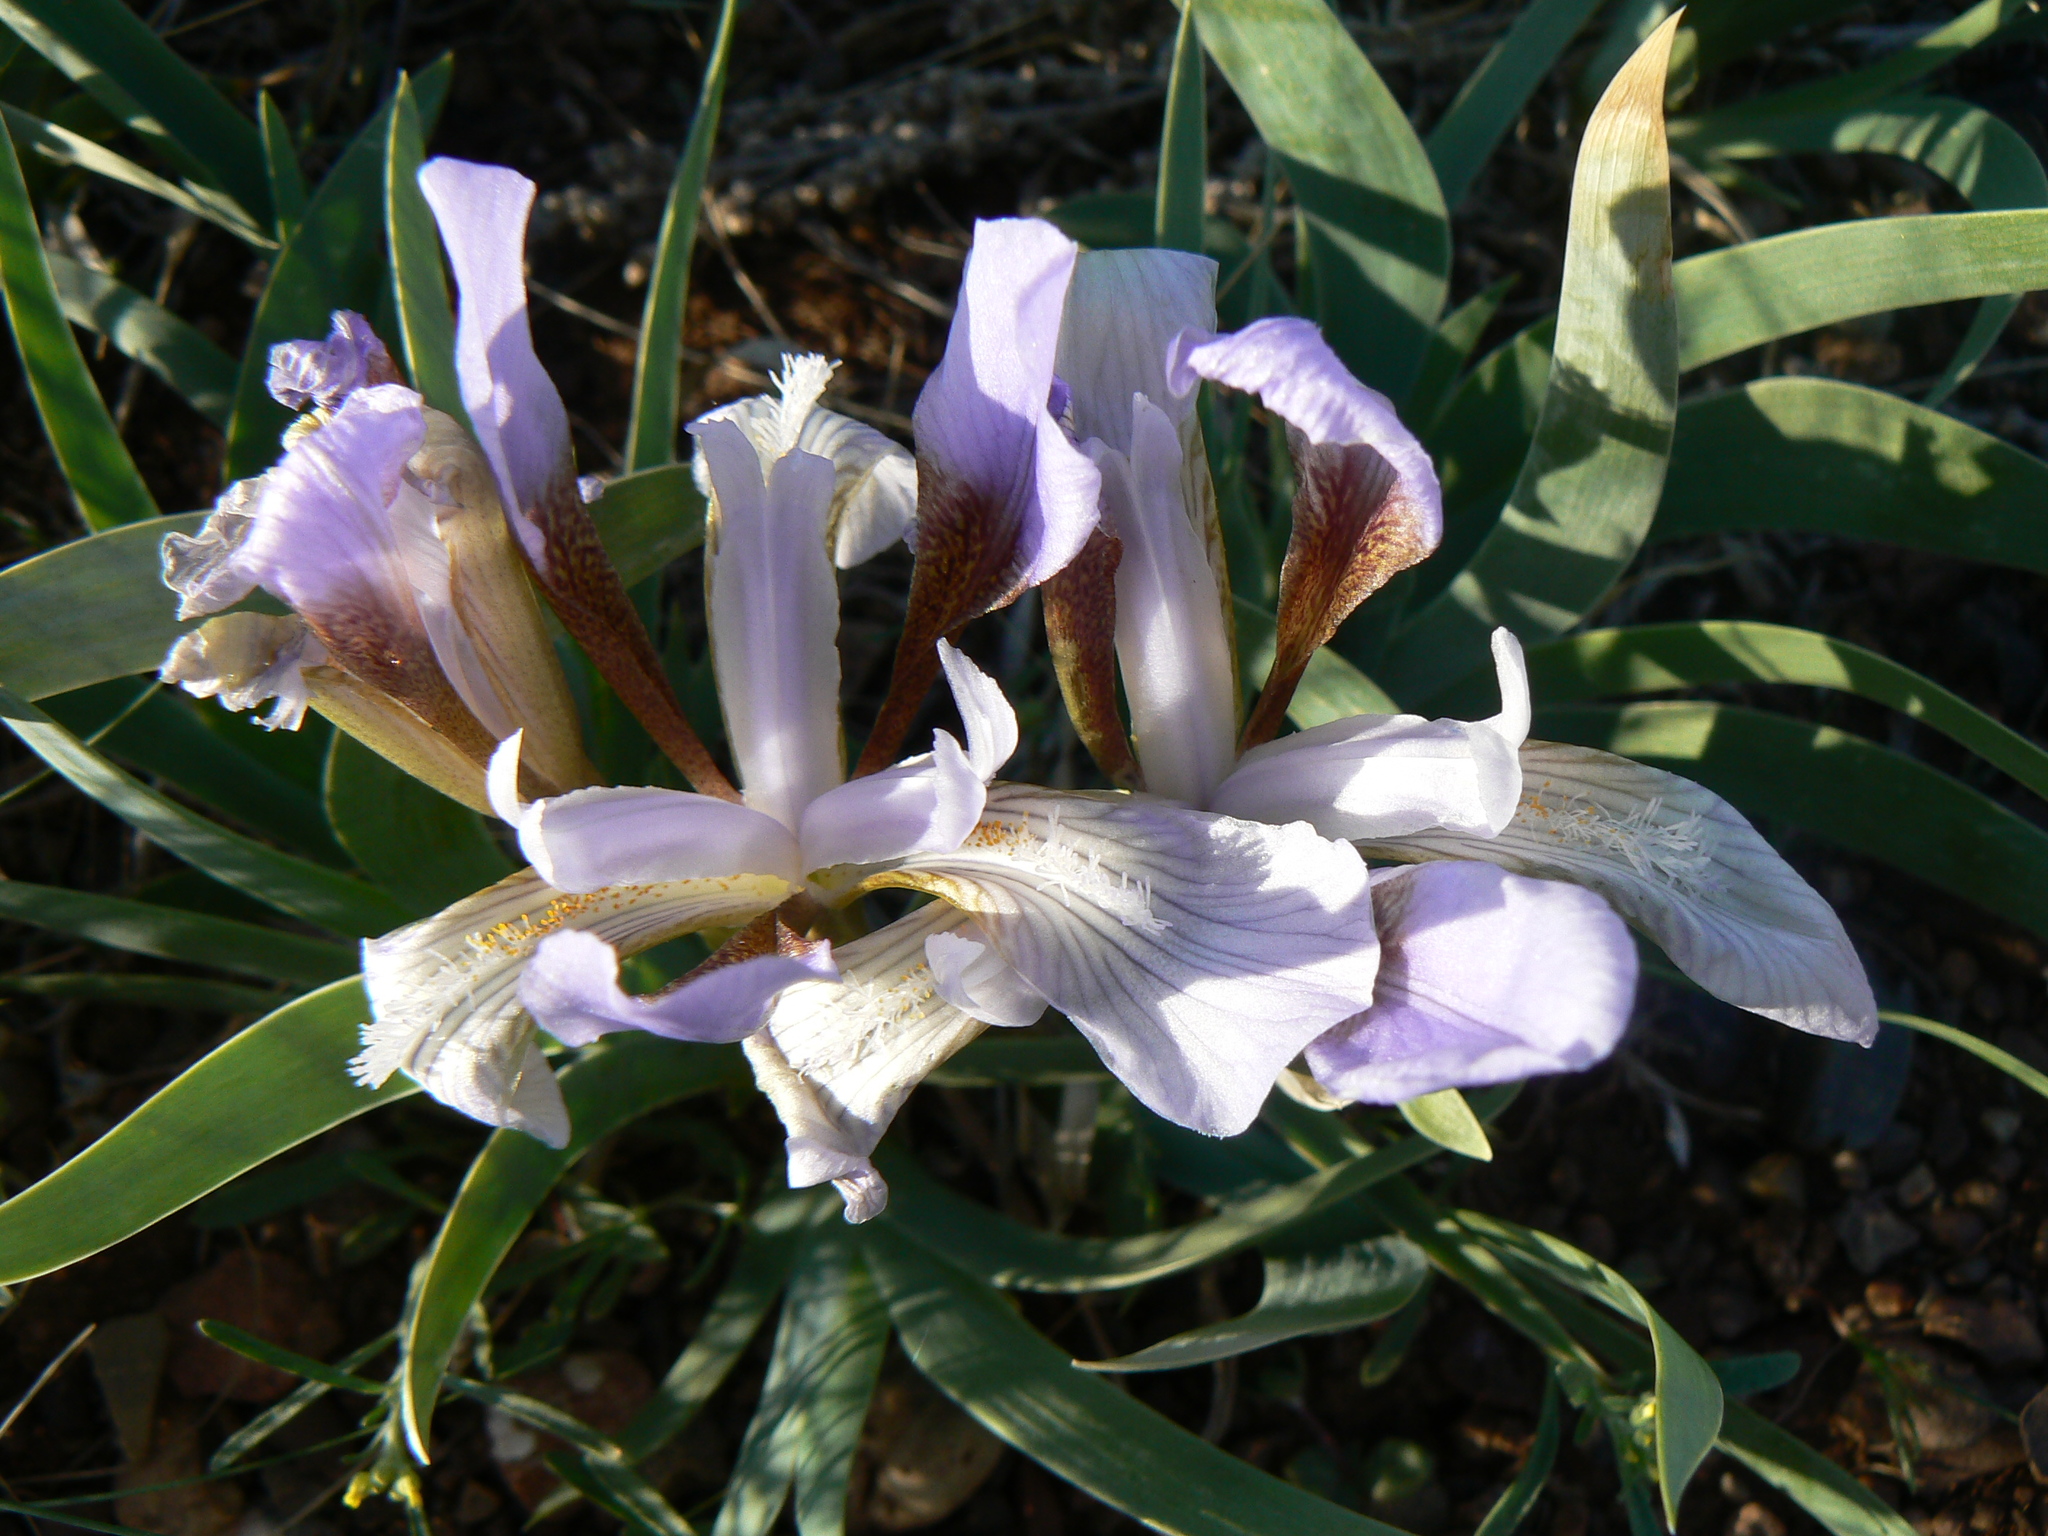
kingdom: Plantae
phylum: Tracheophyta
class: Liliopsida
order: Asparagales
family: Iridaceae
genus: Iris
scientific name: Iris glaucescens
